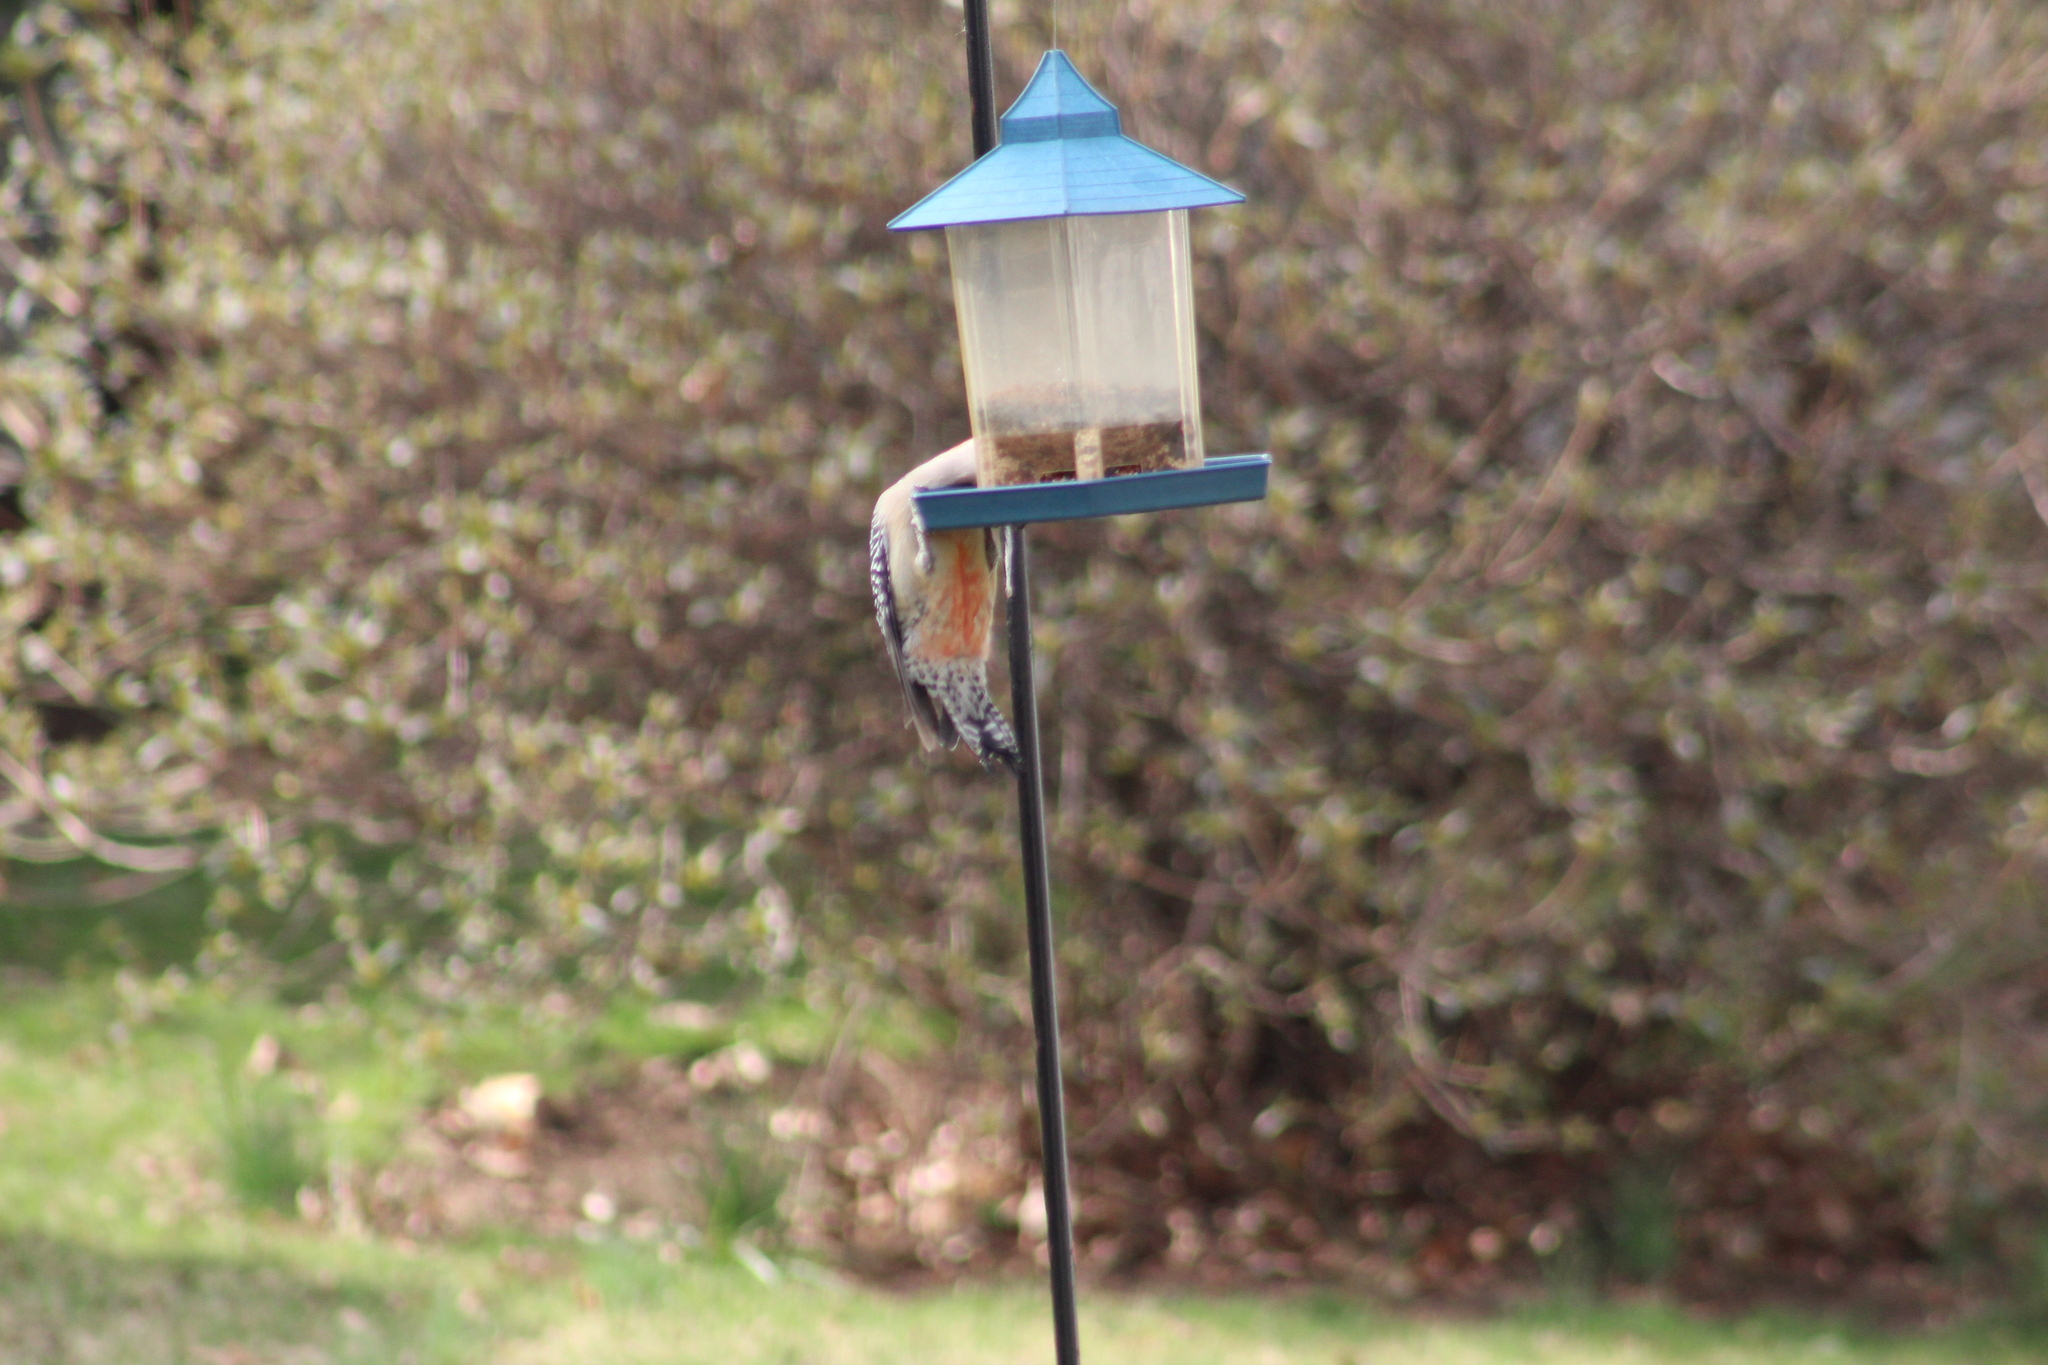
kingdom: Animalia
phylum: Chordata
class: Aves
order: Piciformes
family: Picidae
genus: Melanerpes
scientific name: Melanerpes carolinus
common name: Red-bellied woodpecker
